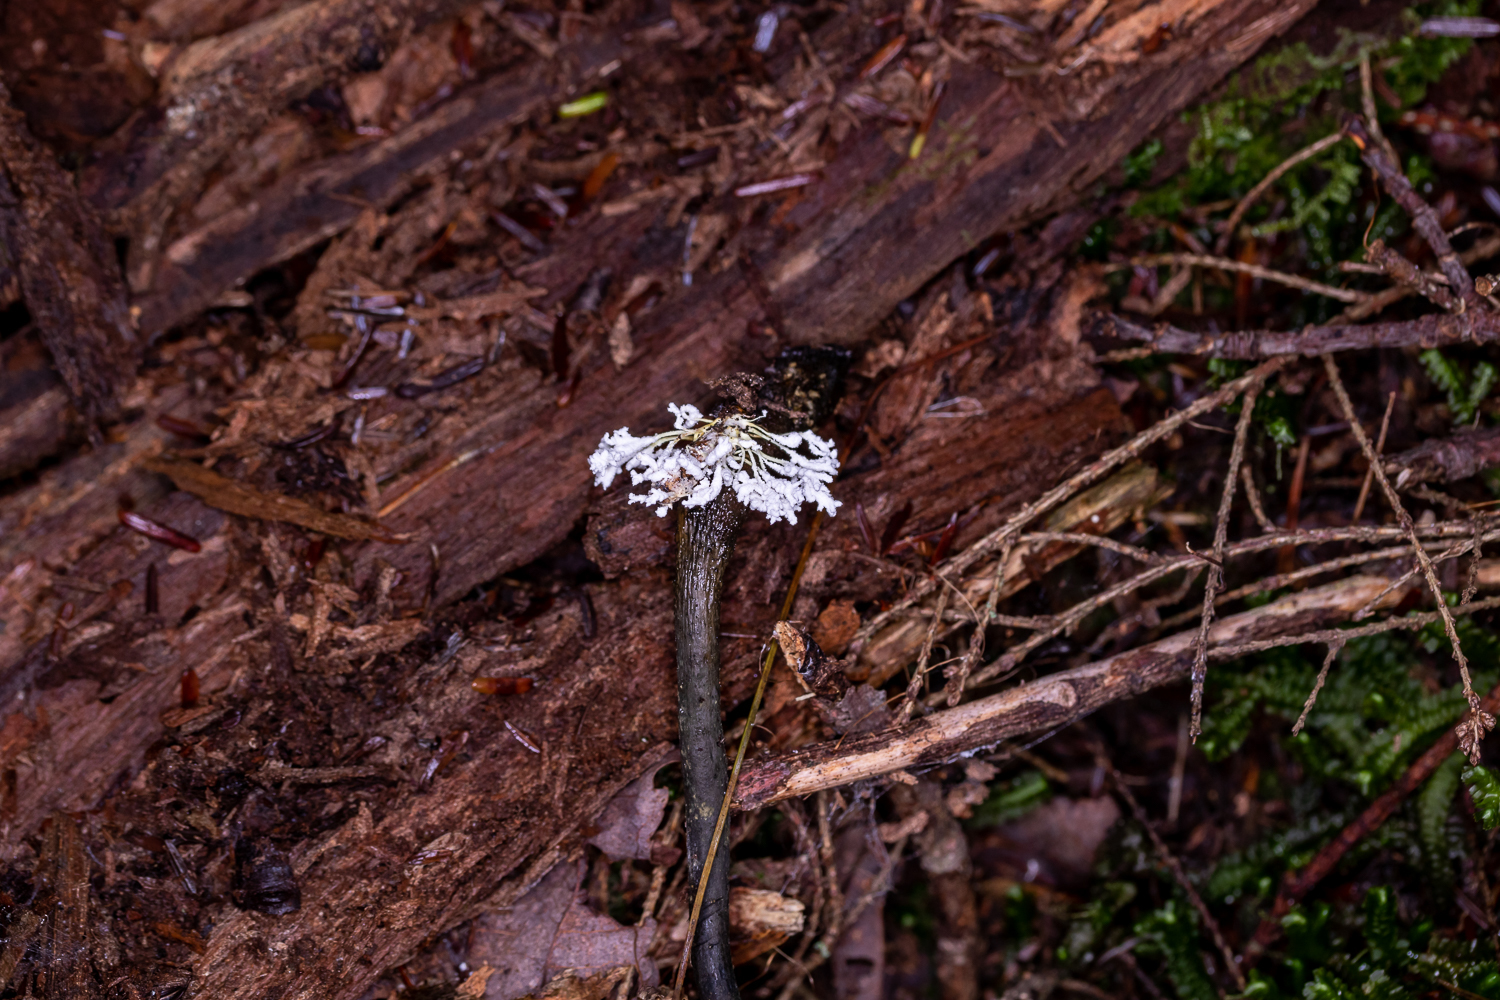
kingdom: Fungi
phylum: Ascomycota
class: Sordariomycetes
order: Hypocreales
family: Cordycipitaceae
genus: Cordyceps
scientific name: Cordyceps tenuipes
